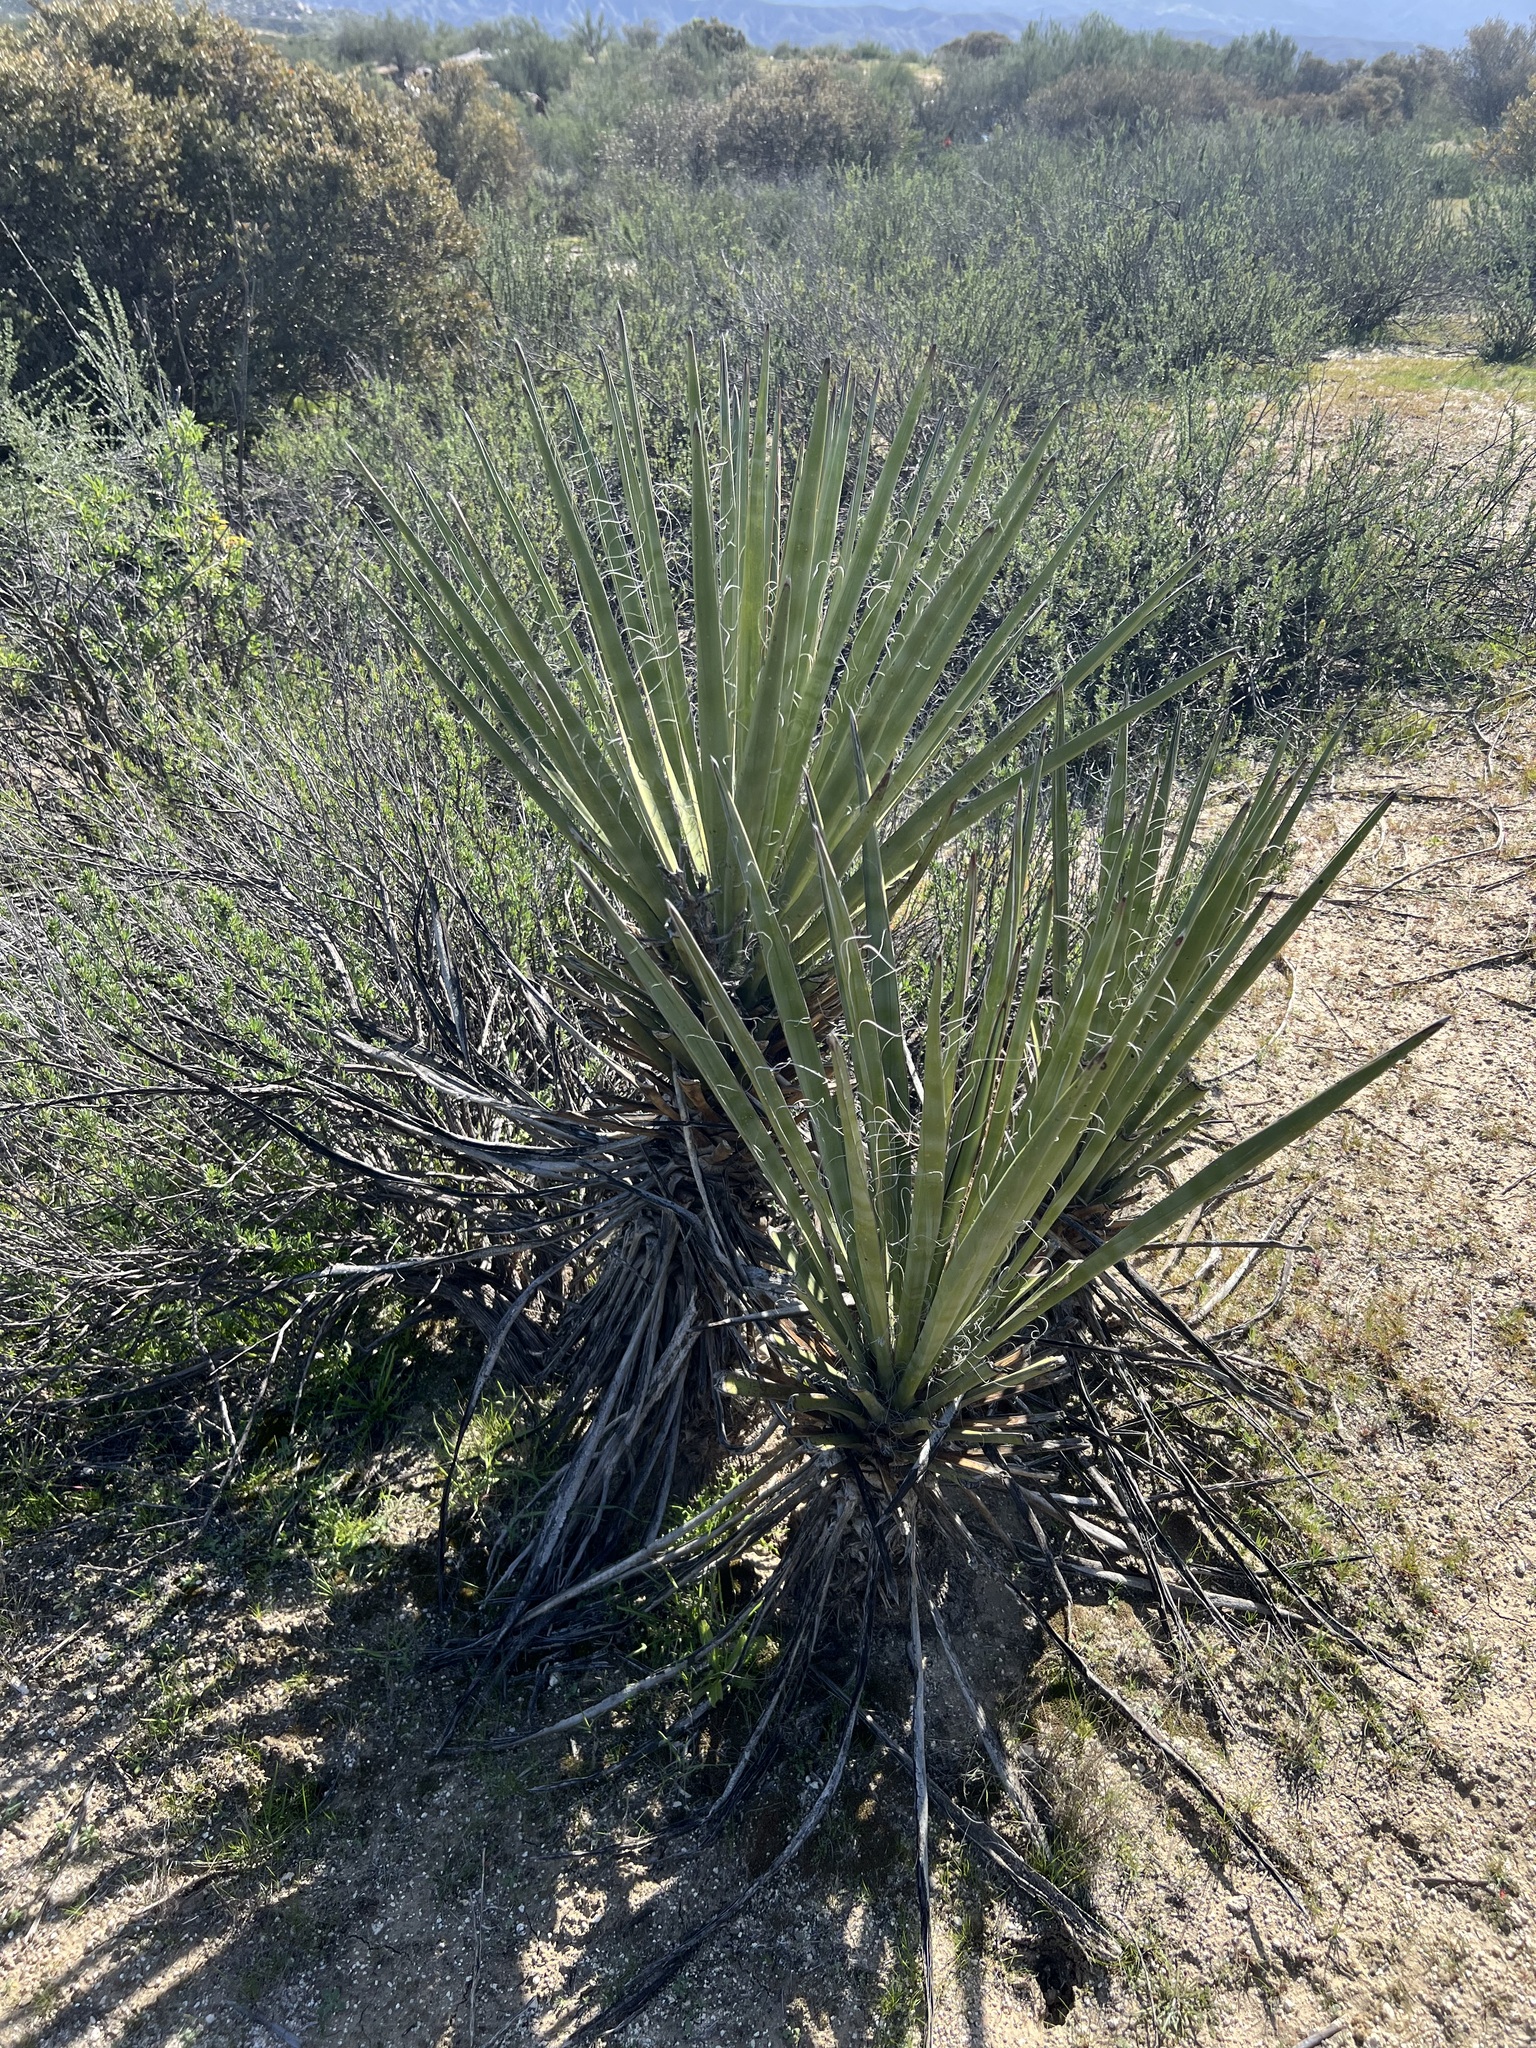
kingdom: Plantae
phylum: Tracheophyta
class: Liliopsida
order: Asparagales
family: Asparagaceae
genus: Yucca
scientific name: Yucca schidigera
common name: Mojave yucca
